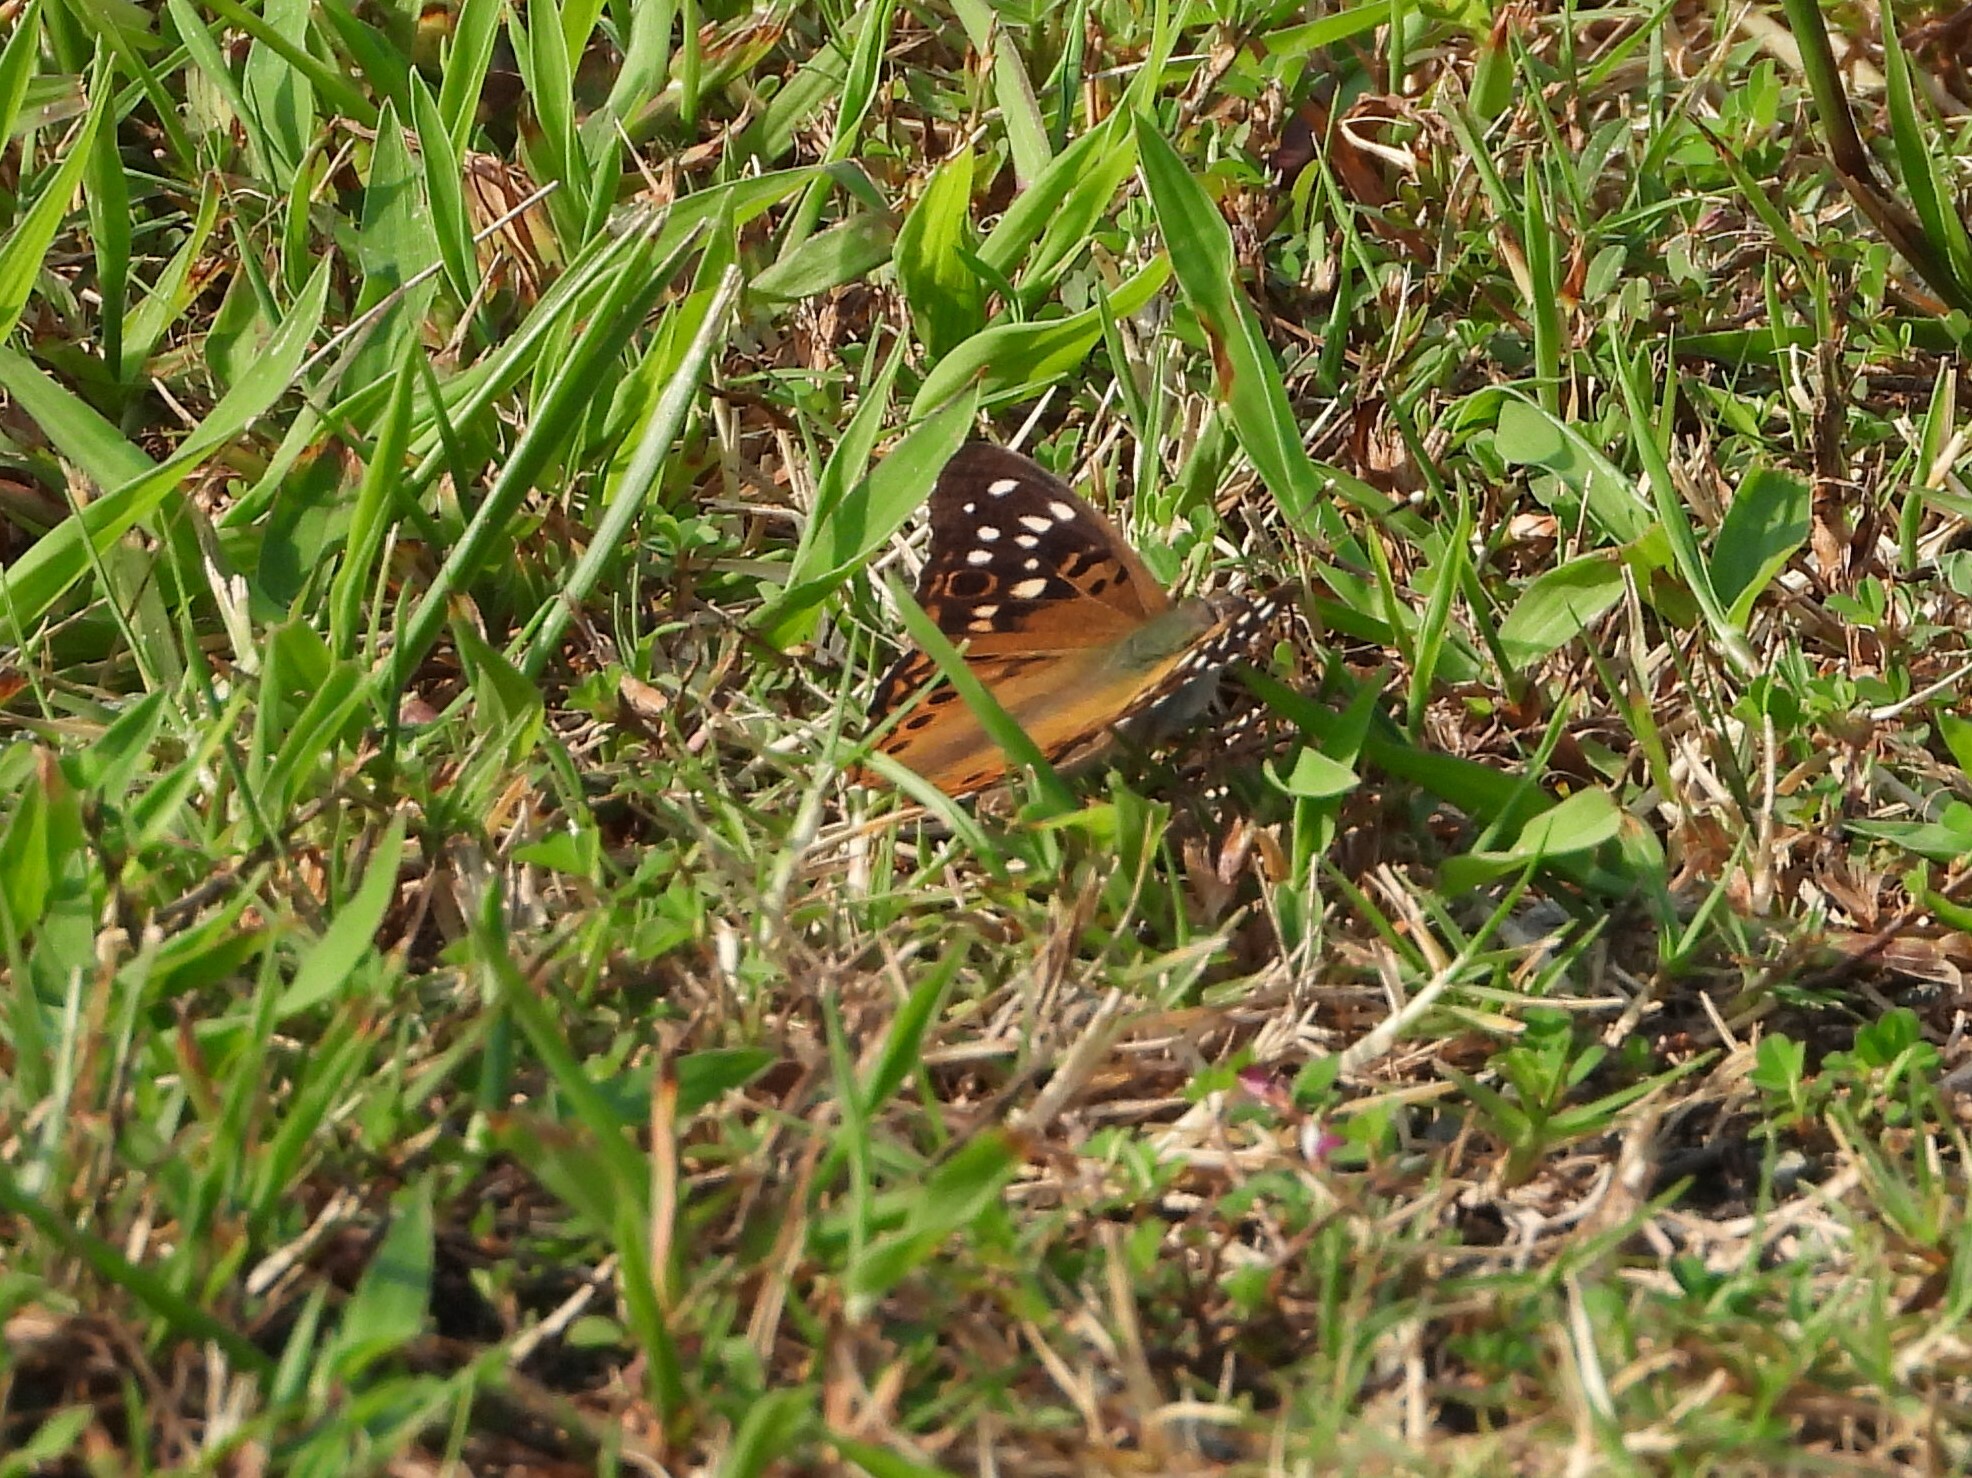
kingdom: Animalia
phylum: Arthropoda
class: Insecta
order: Lepidoptera
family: Nymphalidae
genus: Asterocampa
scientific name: Asterocampa celtis
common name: Hackberry emperor
